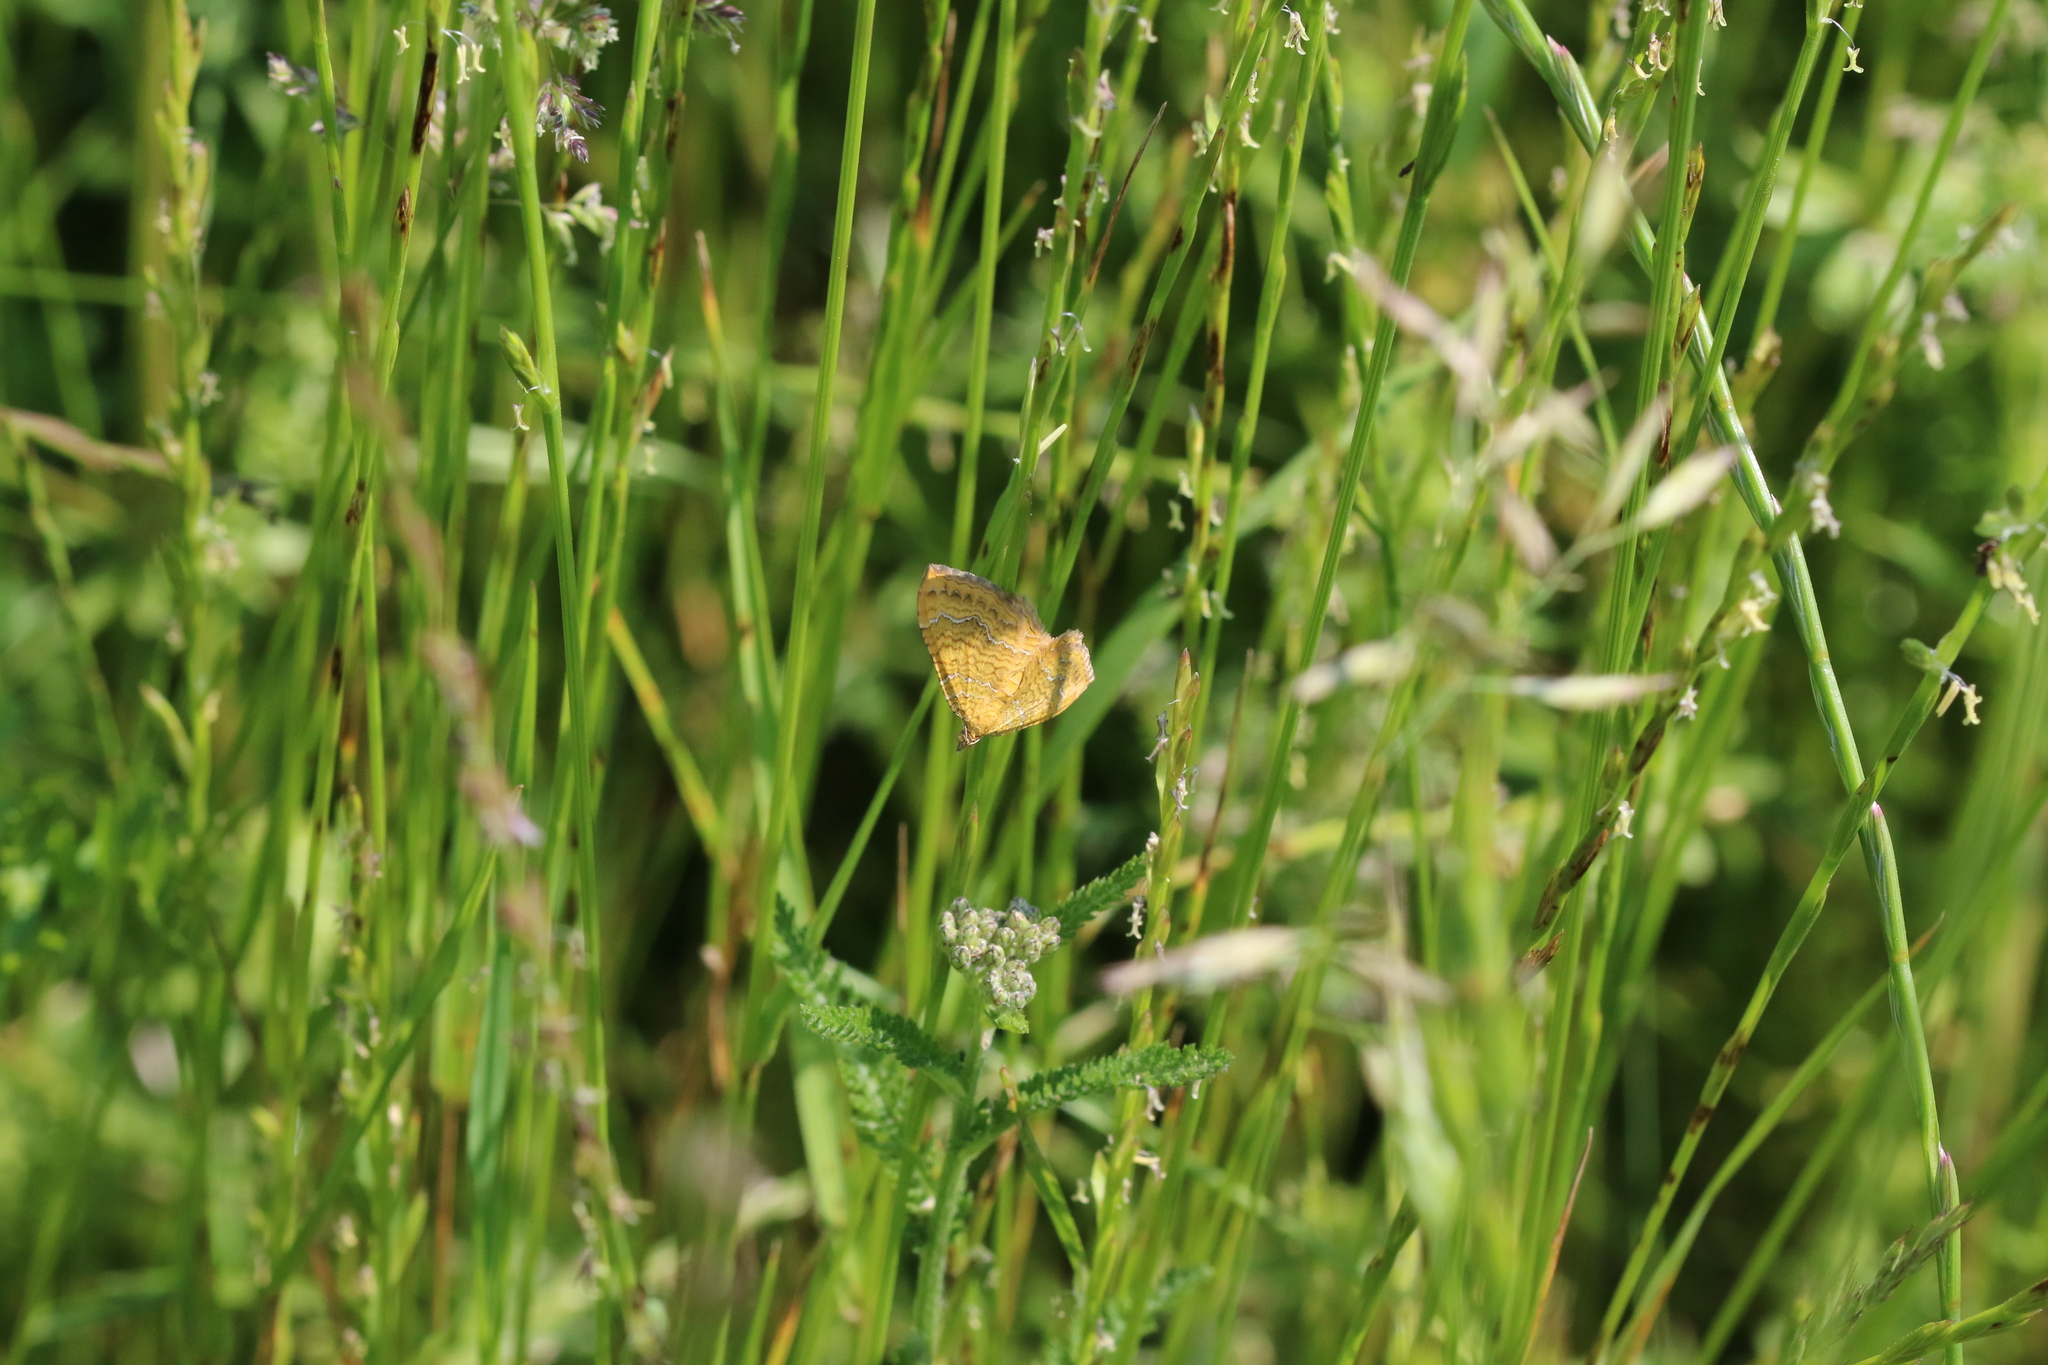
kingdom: Animalia
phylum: Arthropoda
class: Insecta
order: Lepidoptera
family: Geometridae
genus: Camptogramma
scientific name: Camptogramma bilineata
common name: Yellow shell
